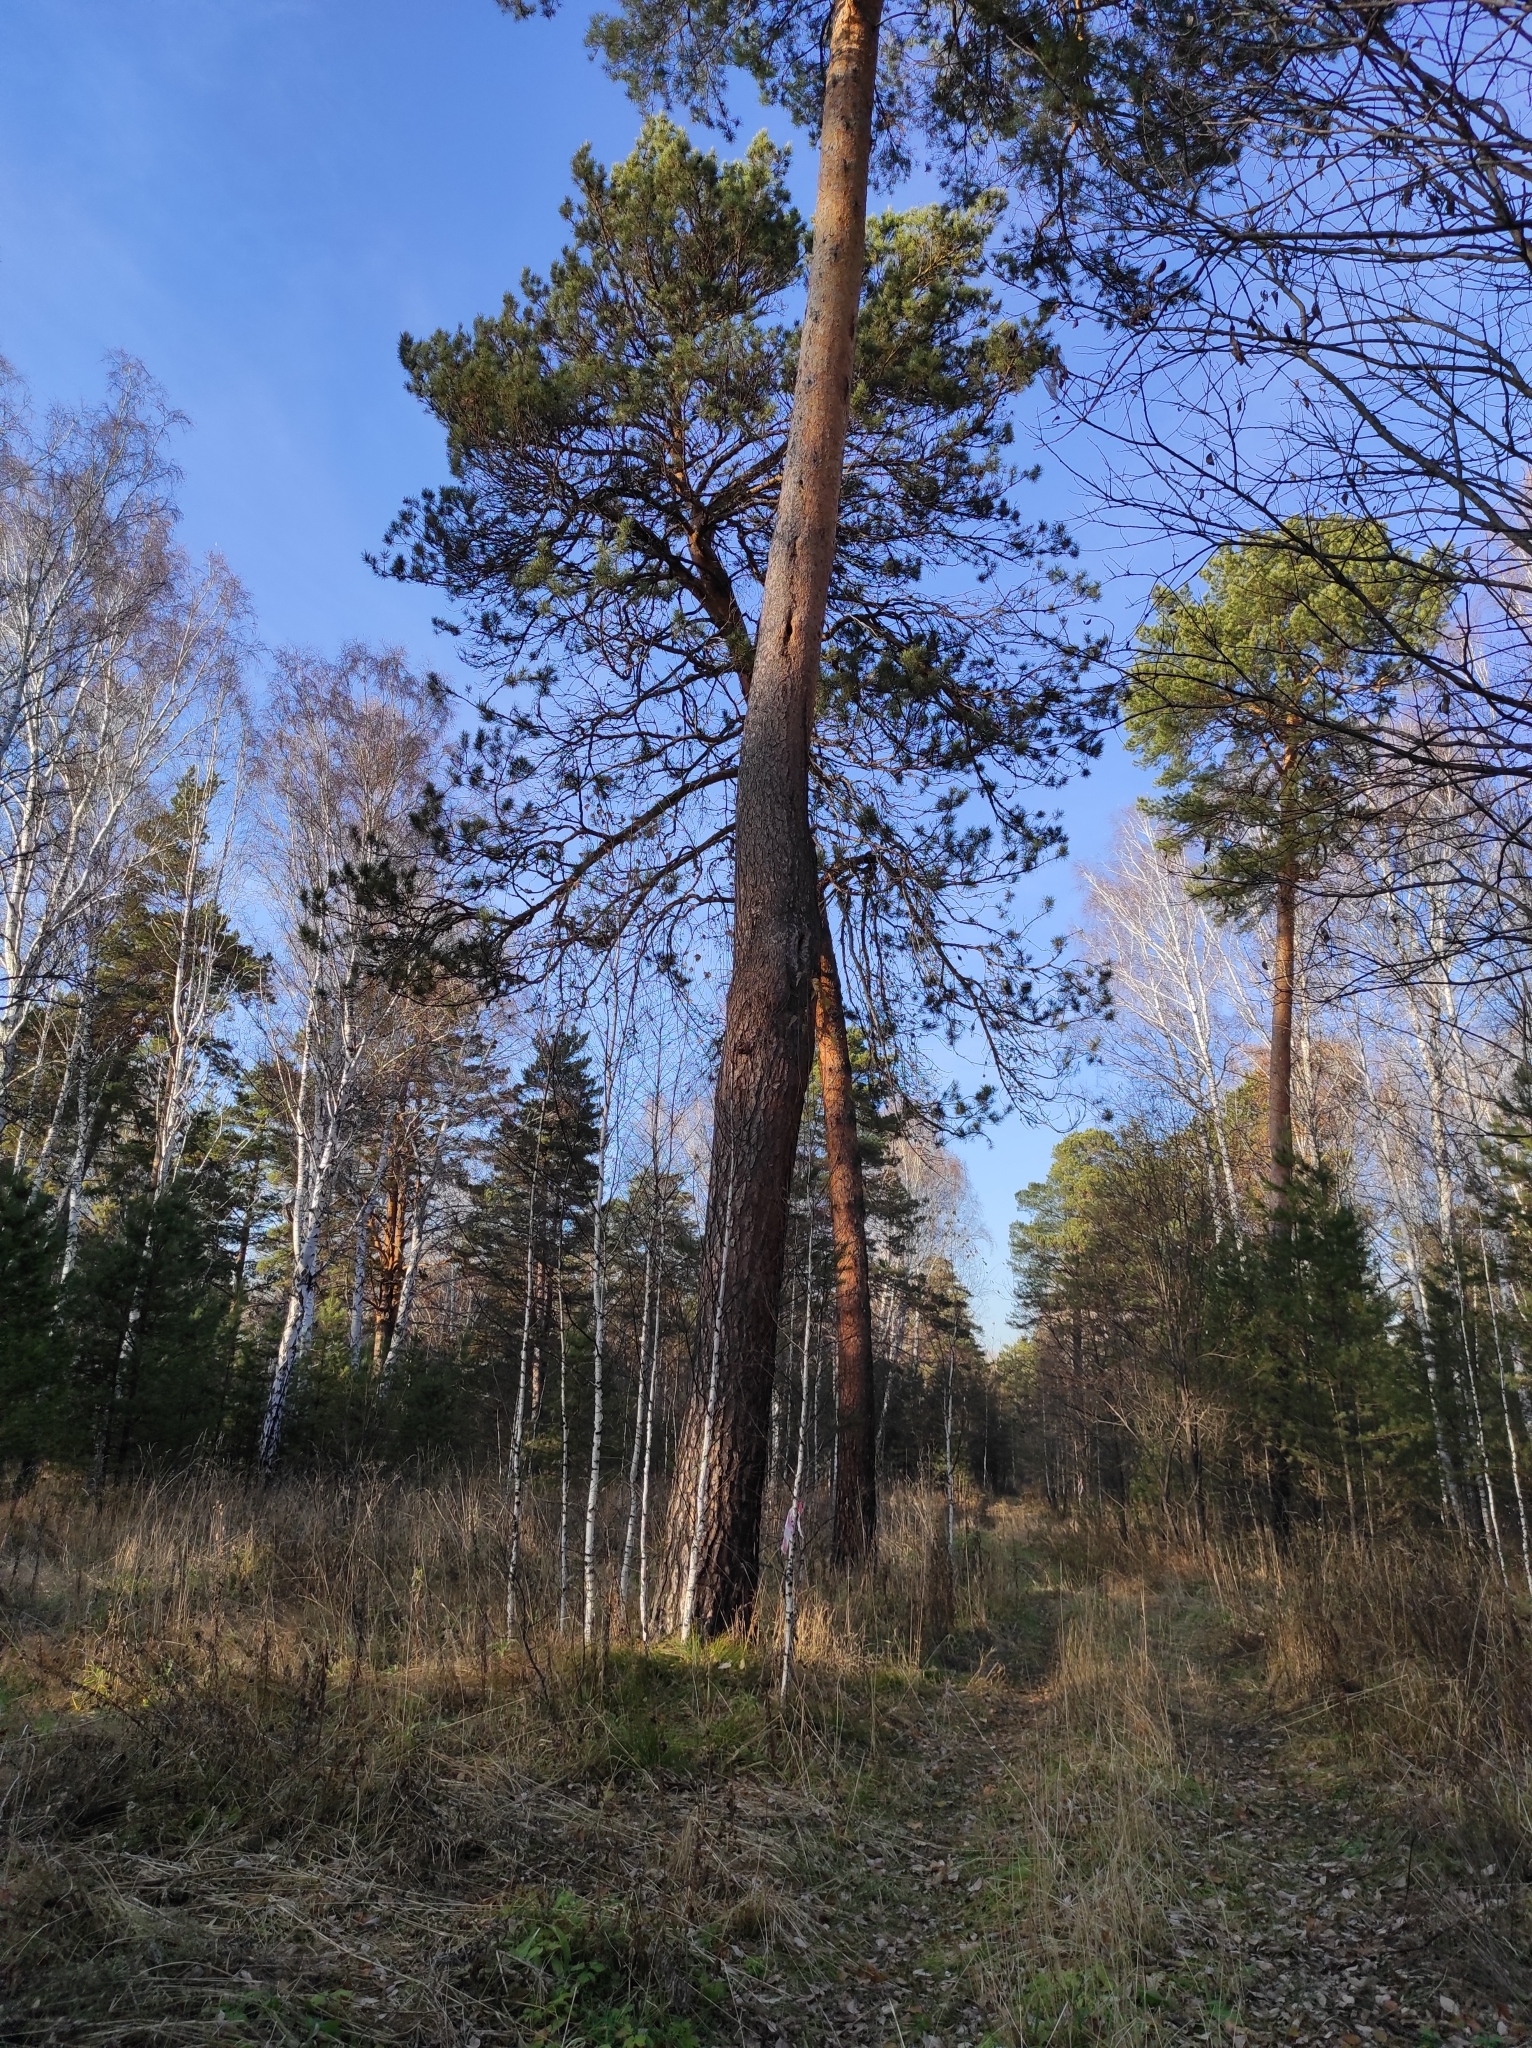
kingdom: Plantae
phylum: Tracheophyta
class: Pinopsida
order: Pinales
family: Pinaceae
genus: Pinus
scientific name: Pinus sylvestris
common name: Scots pine
